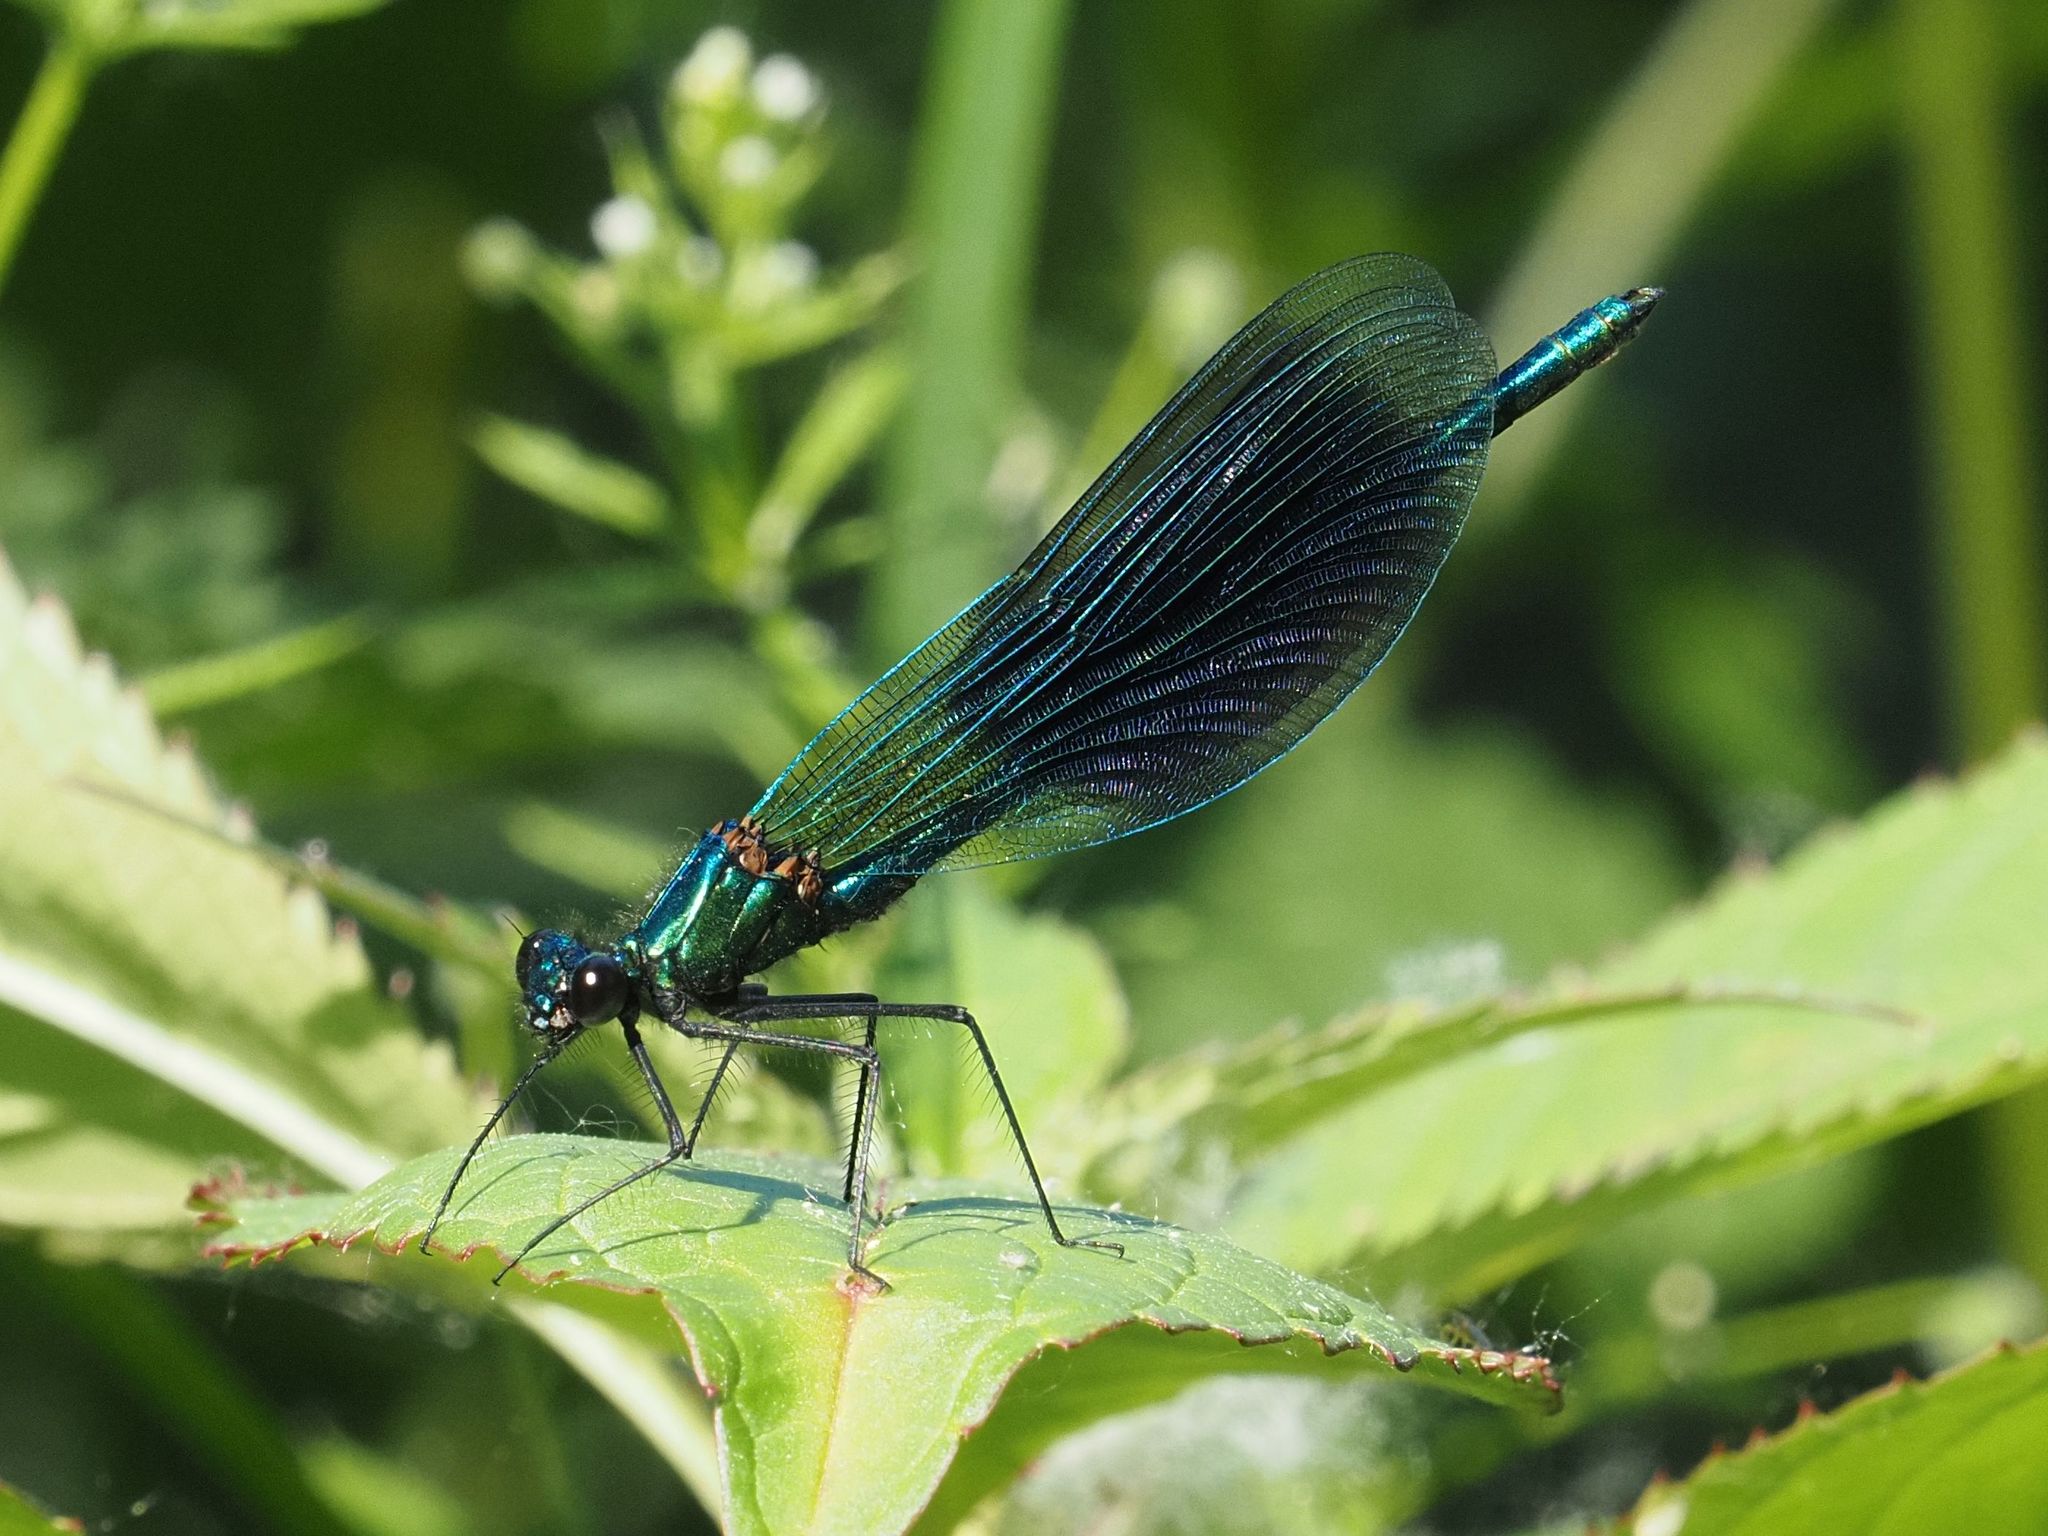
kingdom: Animalia
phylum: Arthropoda
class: Insecta
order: Odonata
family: Calopterygidae
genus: Calopteryx
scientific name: Calopteryx splendens
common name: Banded demoiselle
